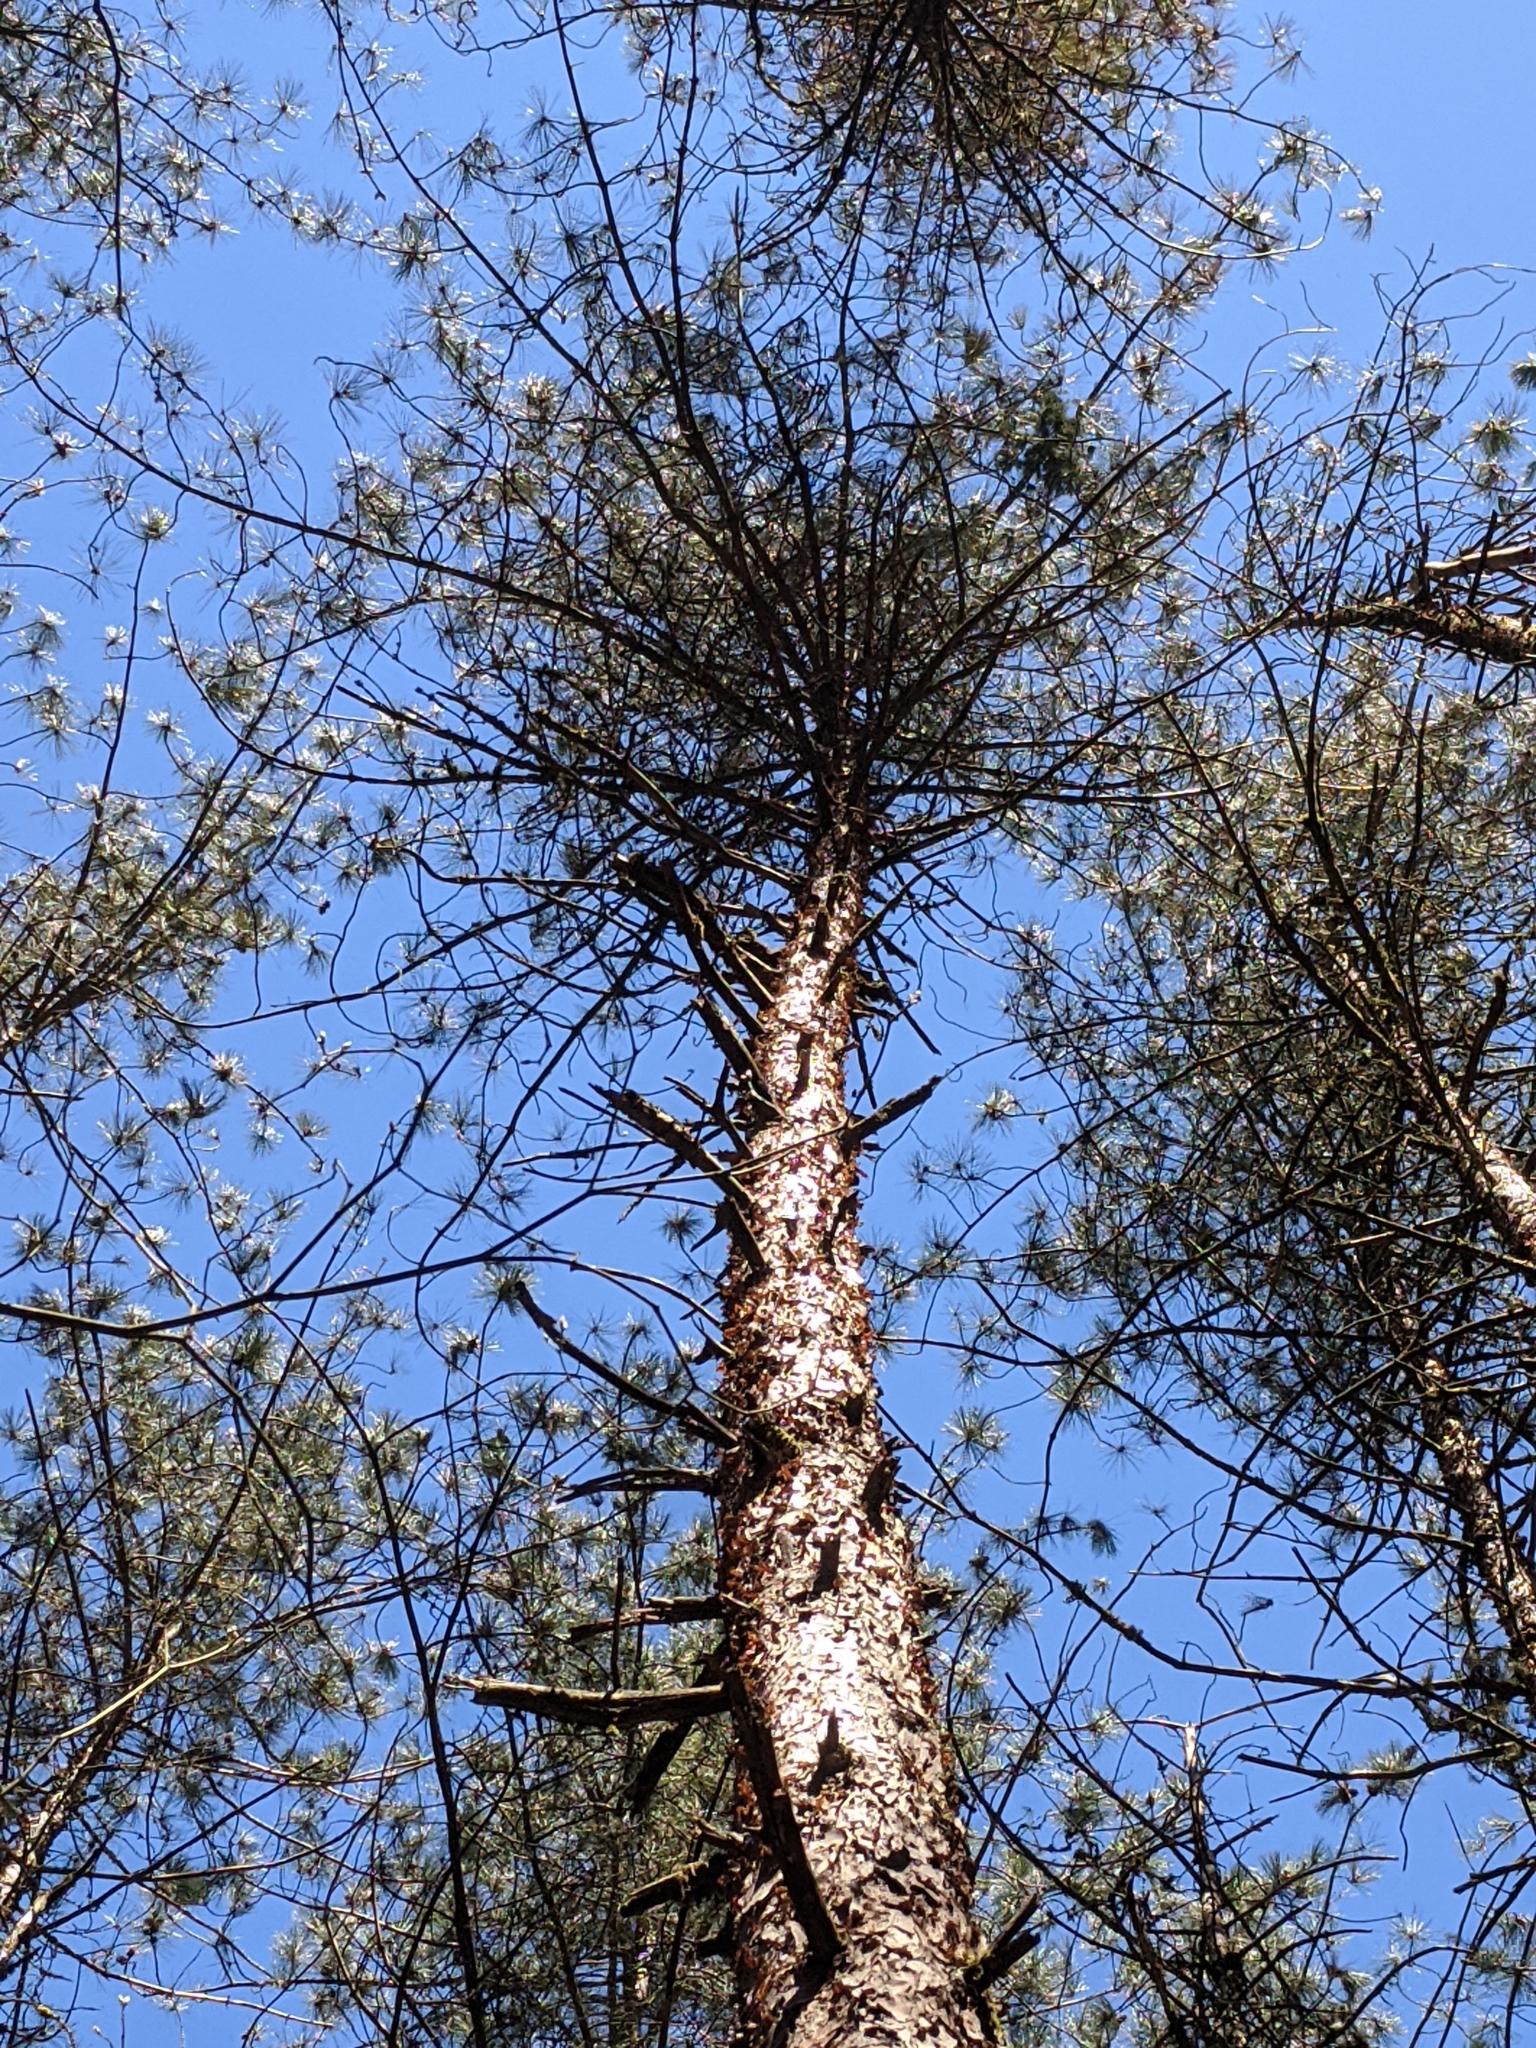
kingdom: Plantae
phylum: Tracheophyta
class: Pinopsida
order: Pinales
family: Pinaceae
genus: Pinus
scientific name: Pinus sylvestris
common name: Scots pine
